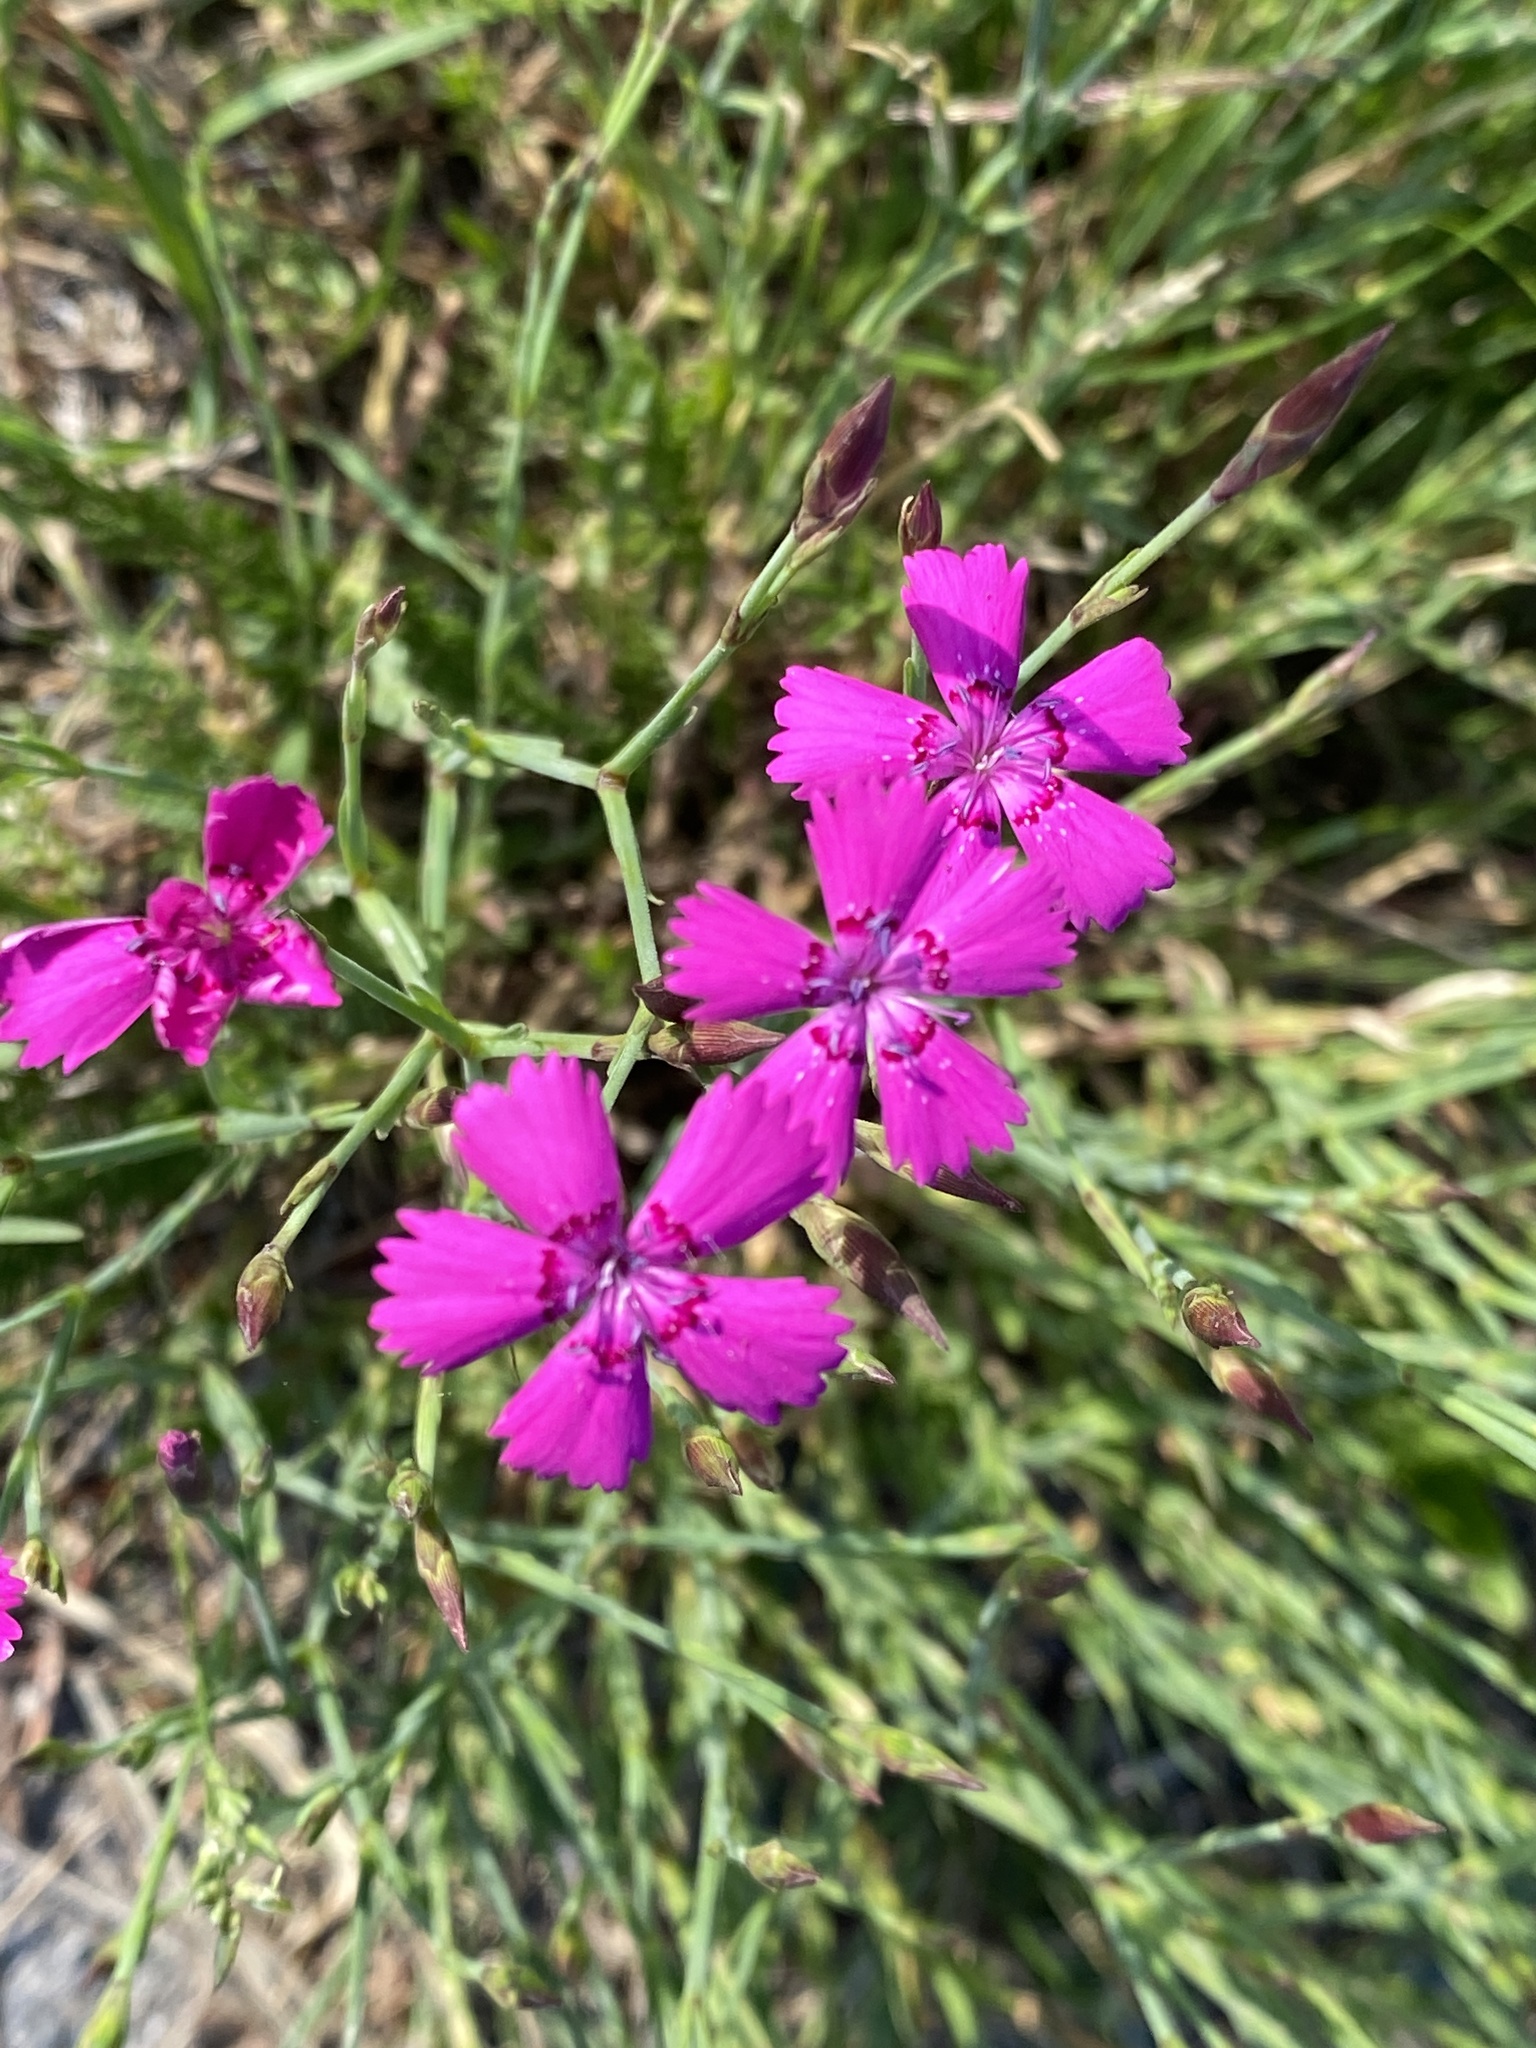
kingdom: Plantae
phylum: Tracheophyta
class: Magnoliopsida
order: Caryophyllales
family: Caryophyllaceae
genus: Dianthus
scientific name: Dianthus deltoides
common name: Maiden pink
